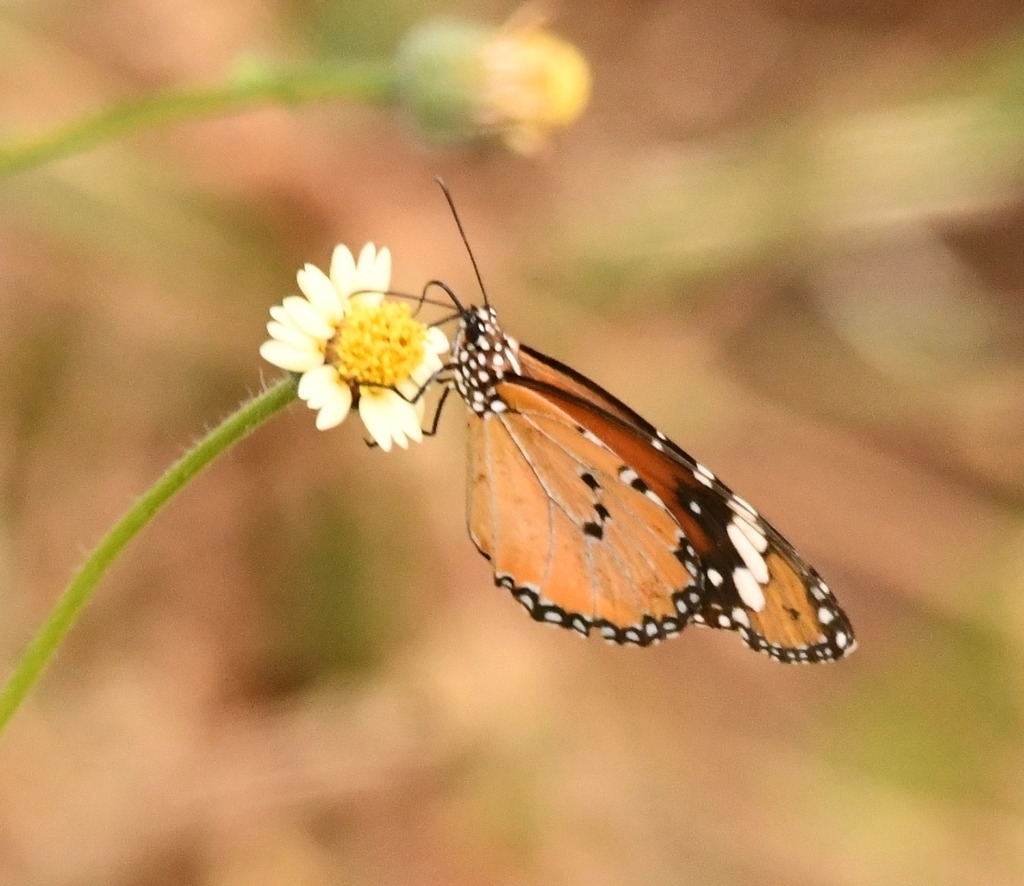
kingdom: Plantae
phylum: Tracheophyta
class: Magnoliopsida
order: Asterales
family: Asteraceae
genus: Tridax
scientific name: Tridax procumbens
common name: Coatbuttons
